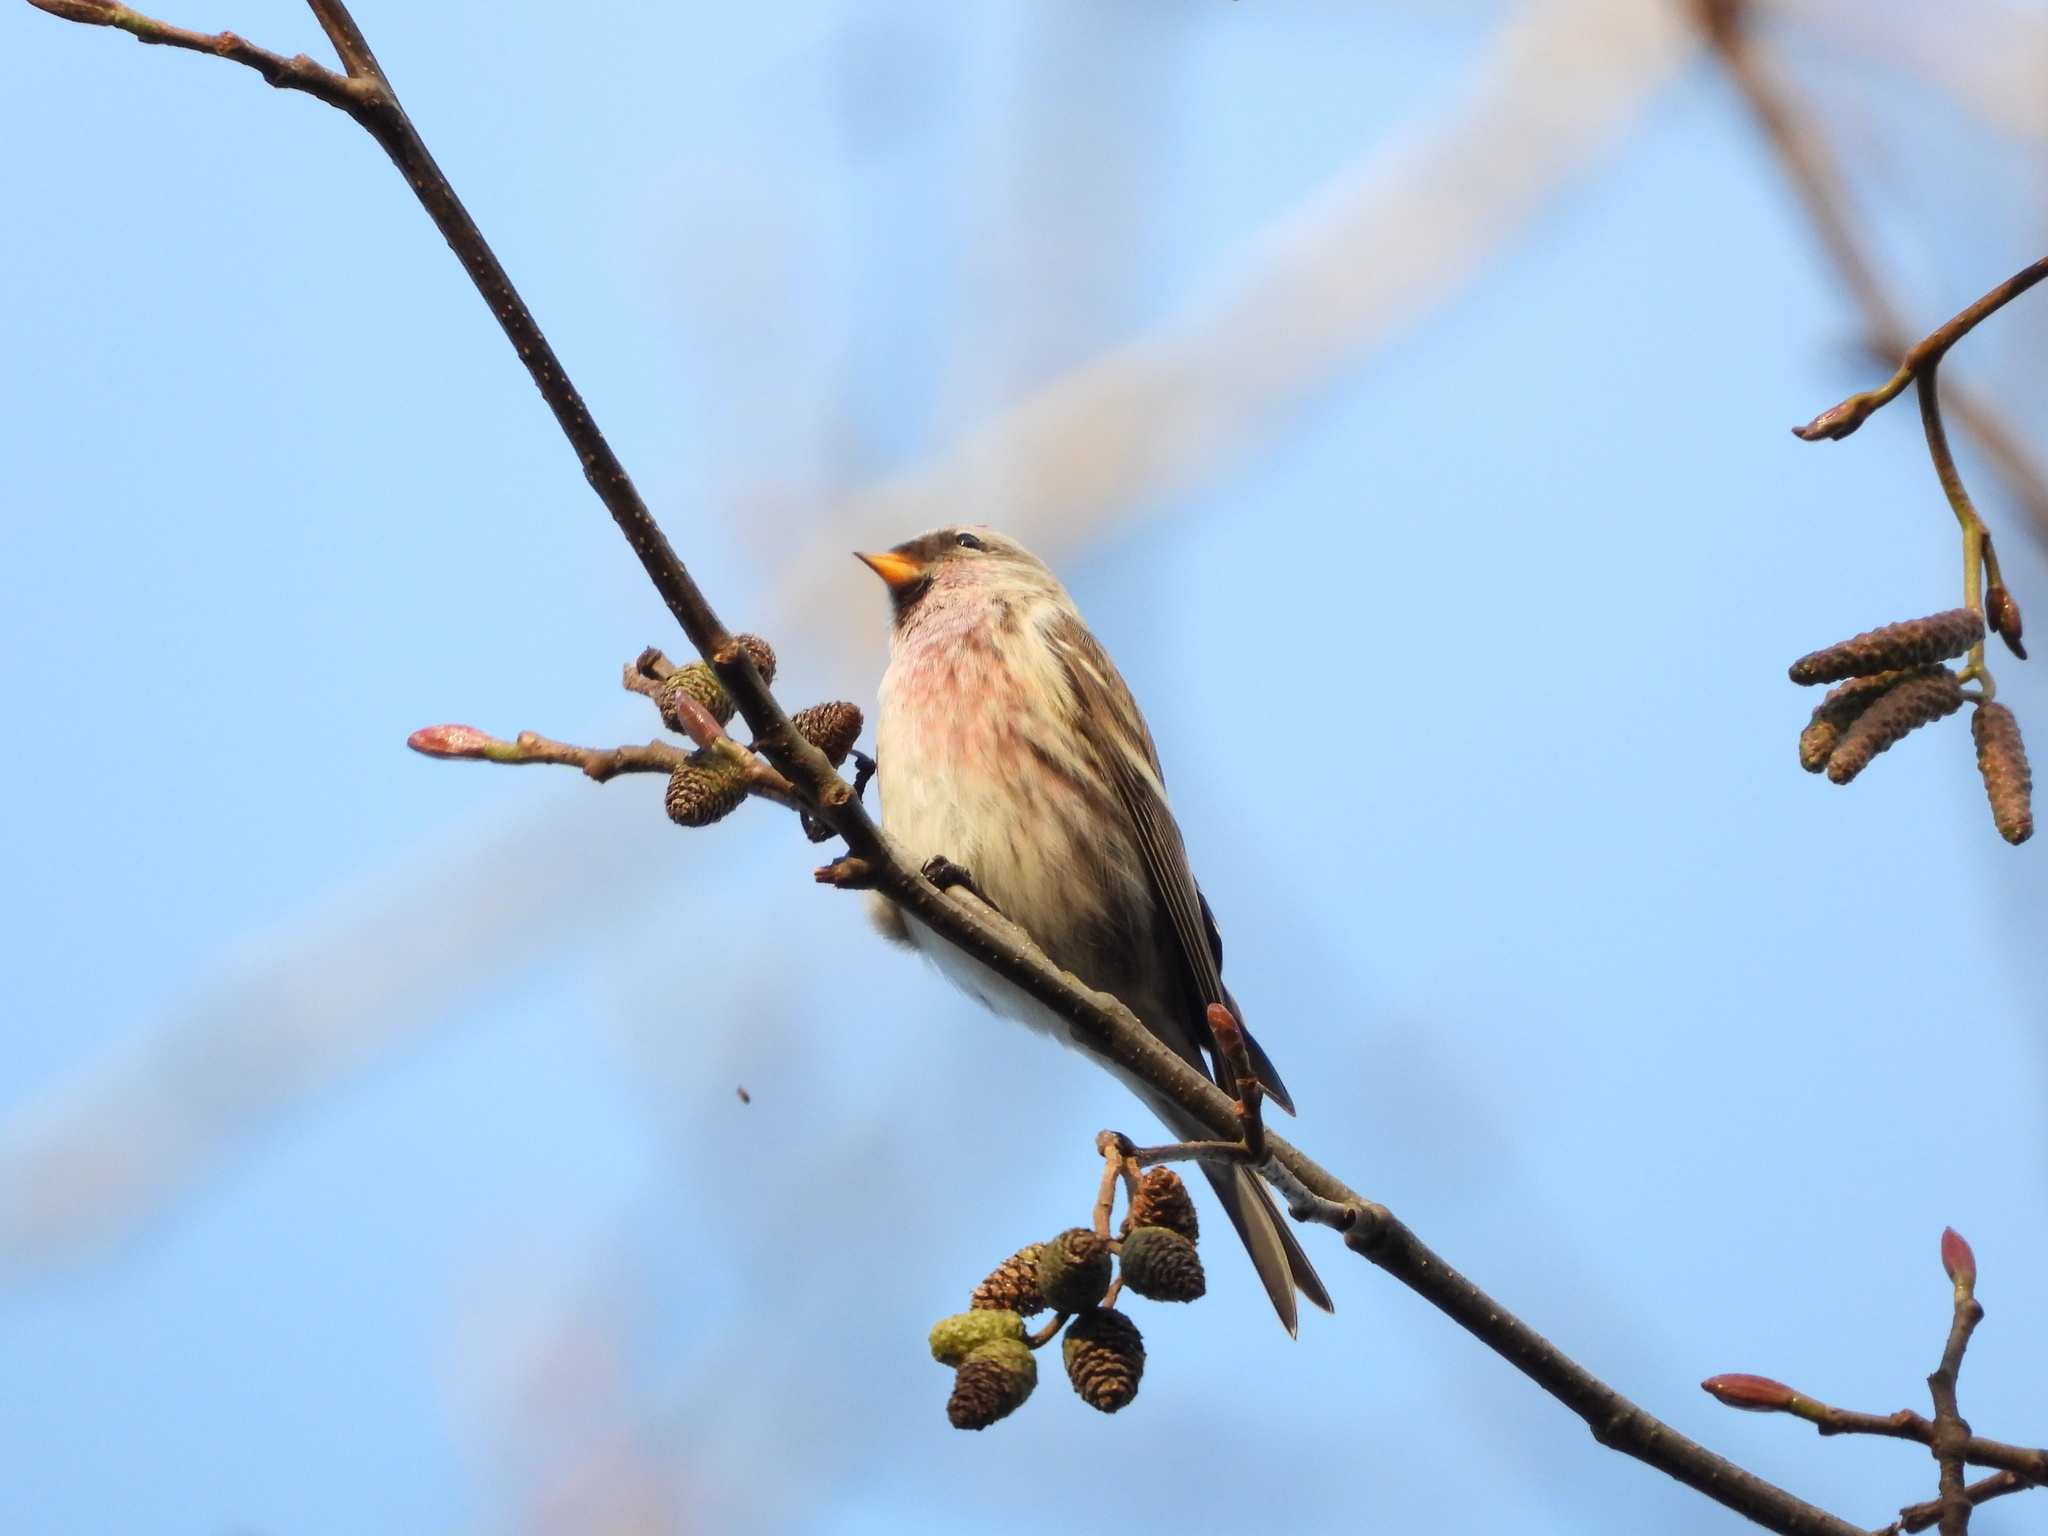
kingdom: Animalia
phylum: Chordata
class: Aves
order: Passeriformes
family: Fringillidae
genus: Acanthis
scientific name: Acanthis flammea
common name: Common redpoll
